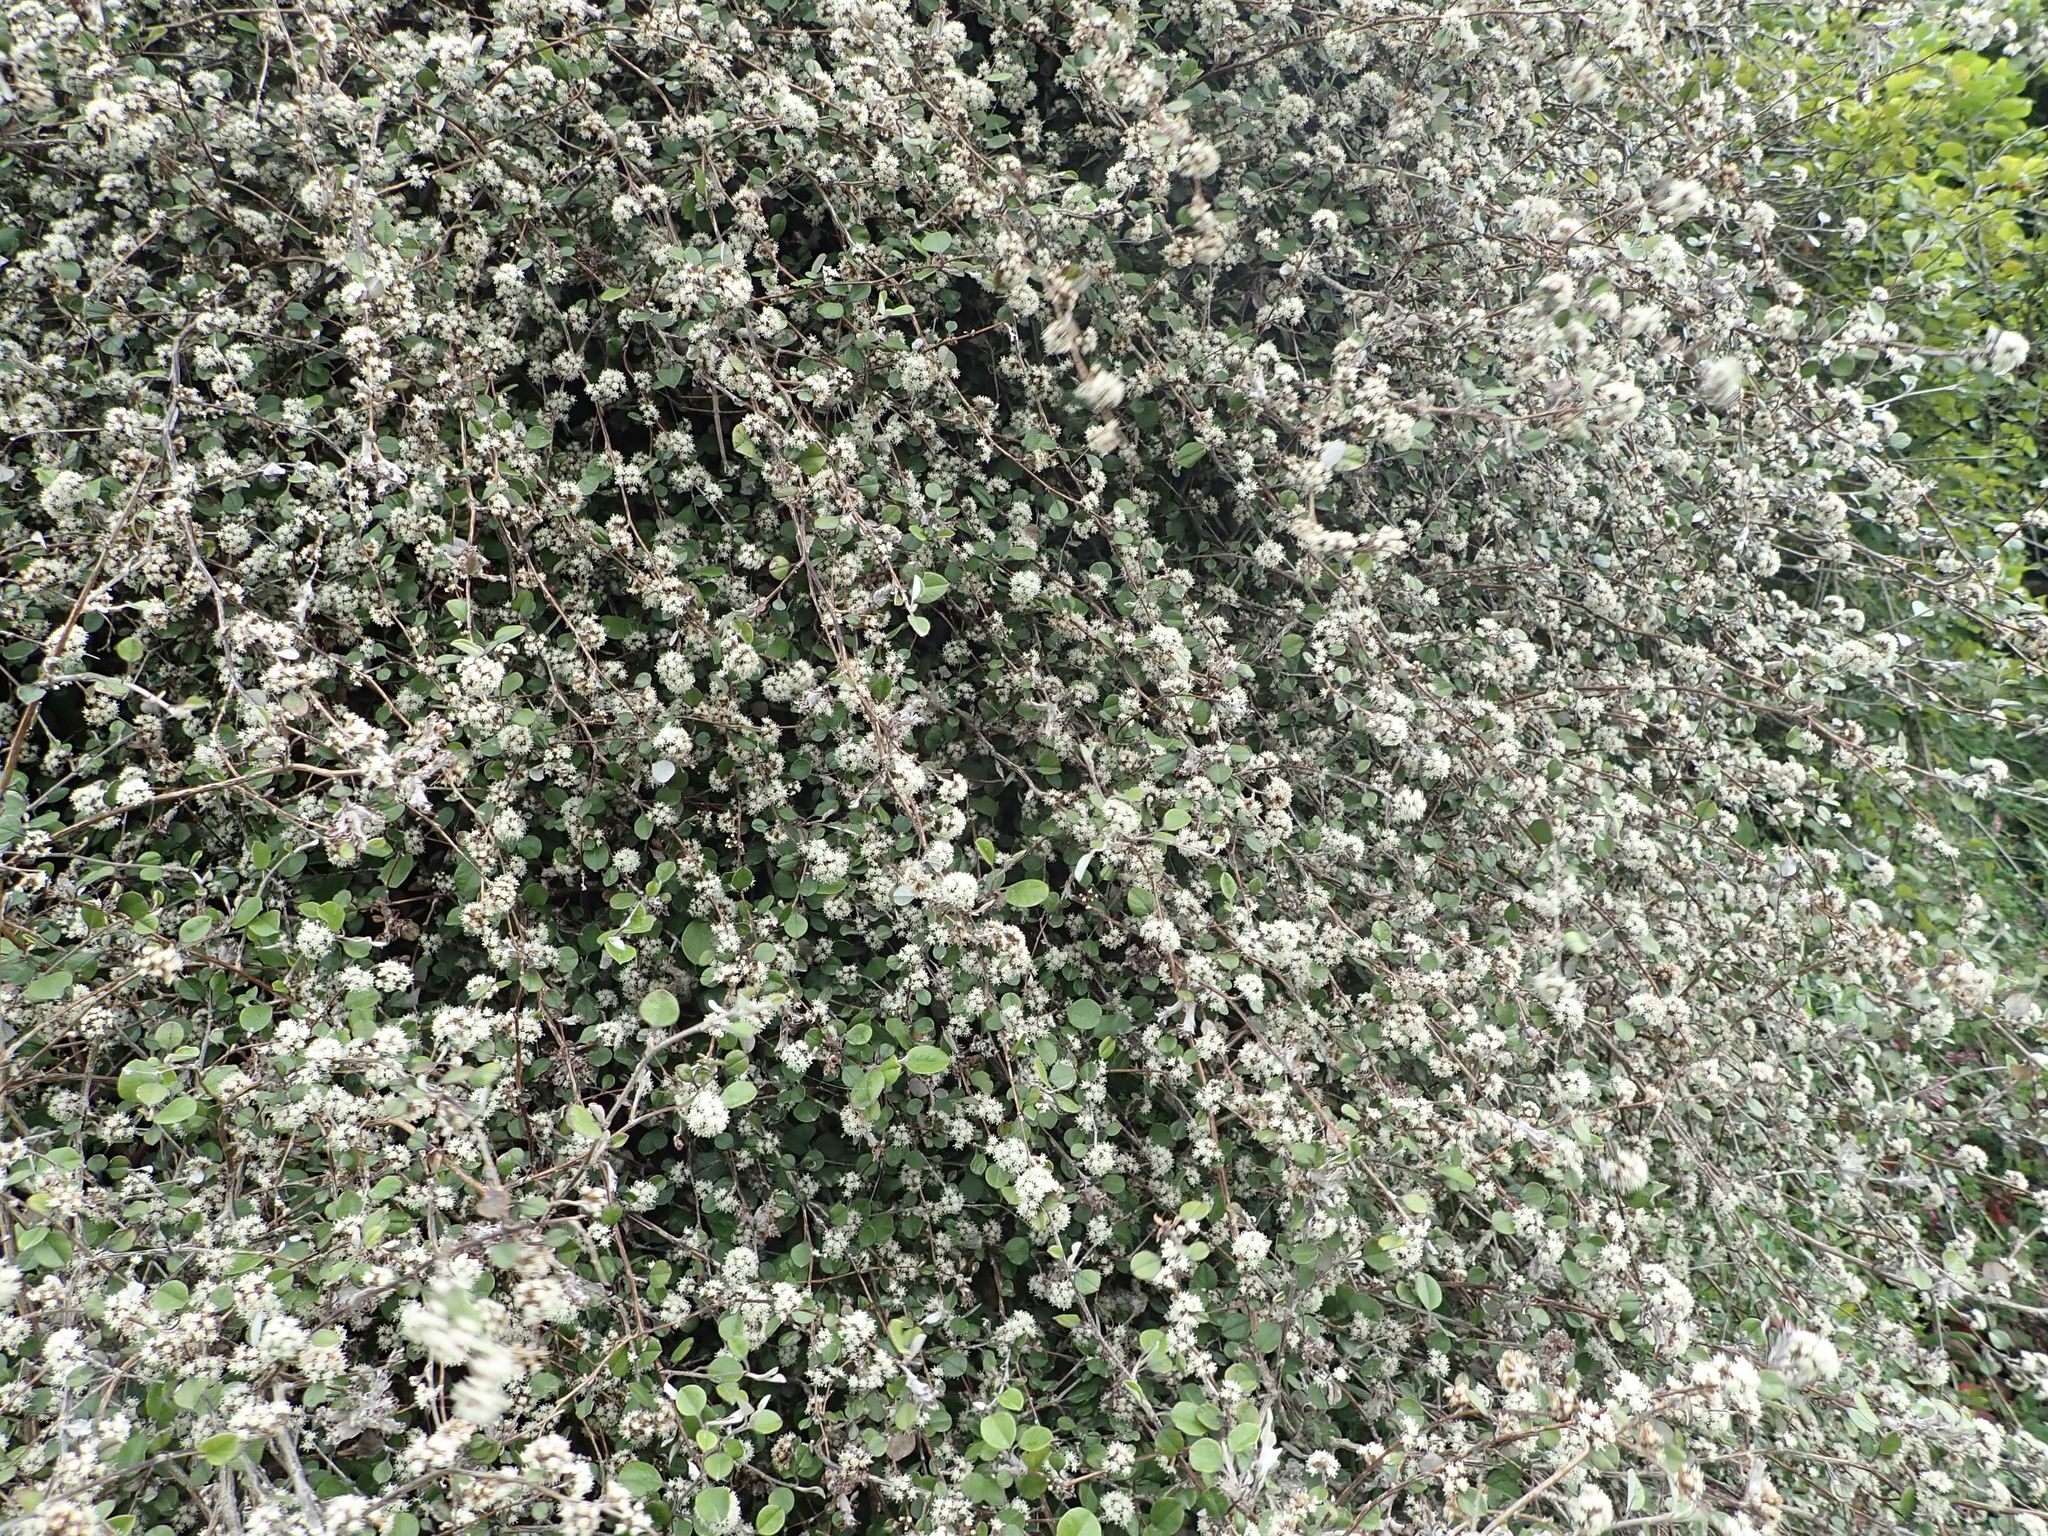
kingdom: Plantae
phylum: Tracheophyta
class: Magnoliopsida
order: Asterales
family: Asteraceae
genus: Ozothamnus
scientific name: Ozothamnus glomeratus
